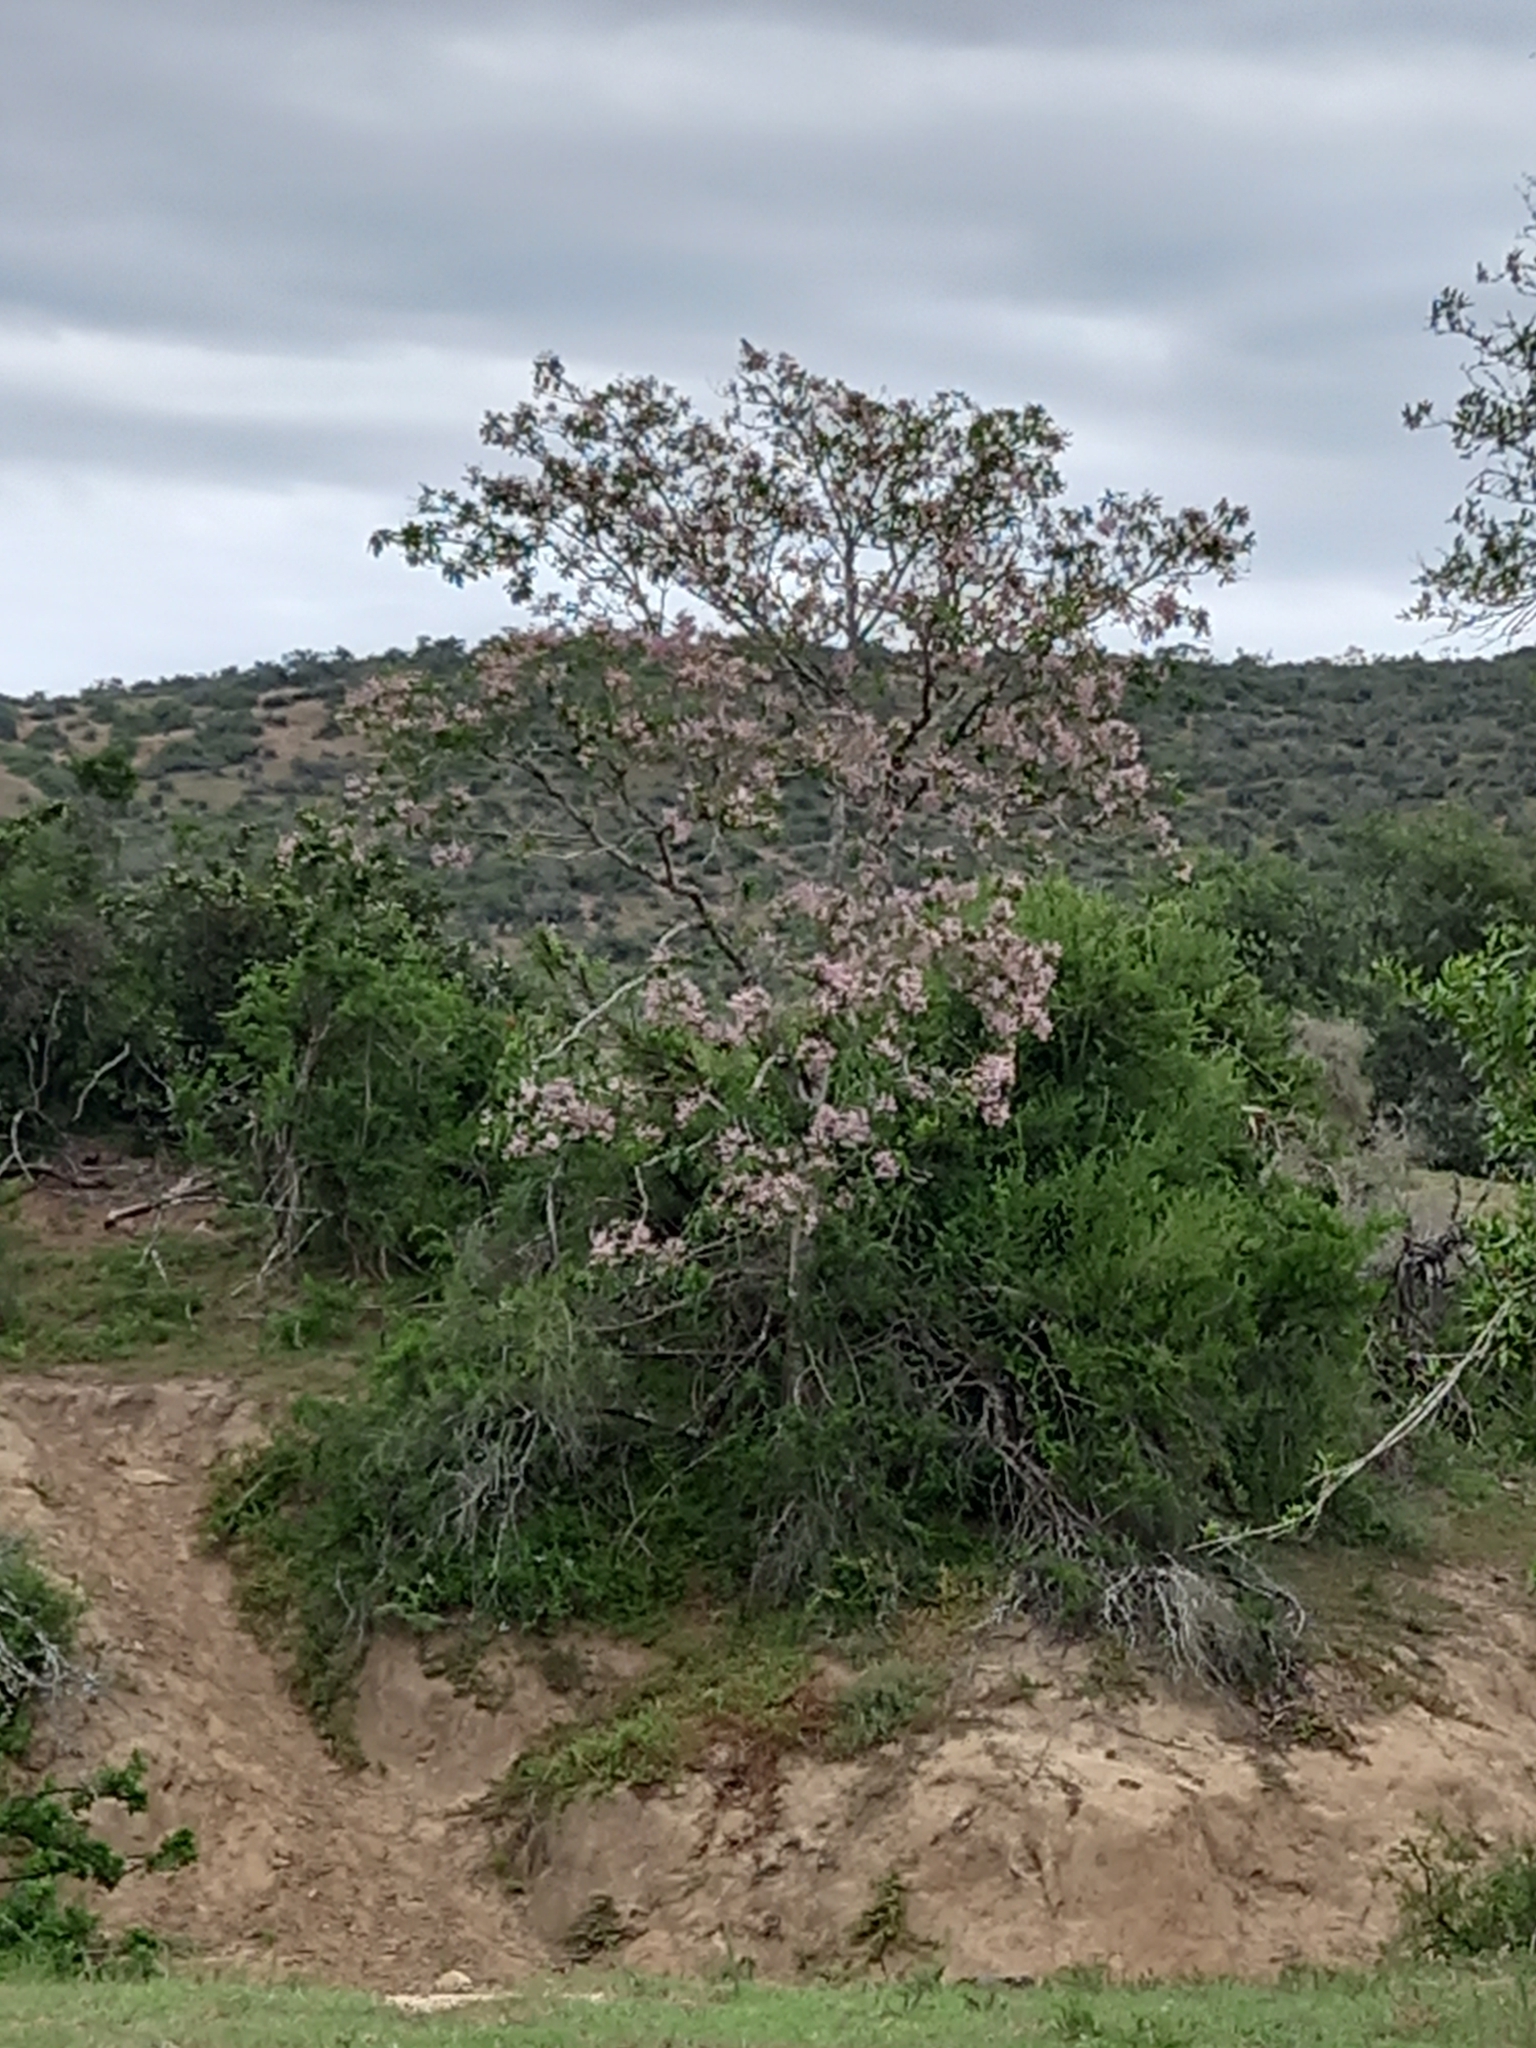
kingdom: Plantae
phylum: Tracheophyta
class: Magnoliopsida
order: Sapindales
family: Rutaceae
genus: Calodendrum
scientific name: Calodendrum capense
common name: Cape chestnut
